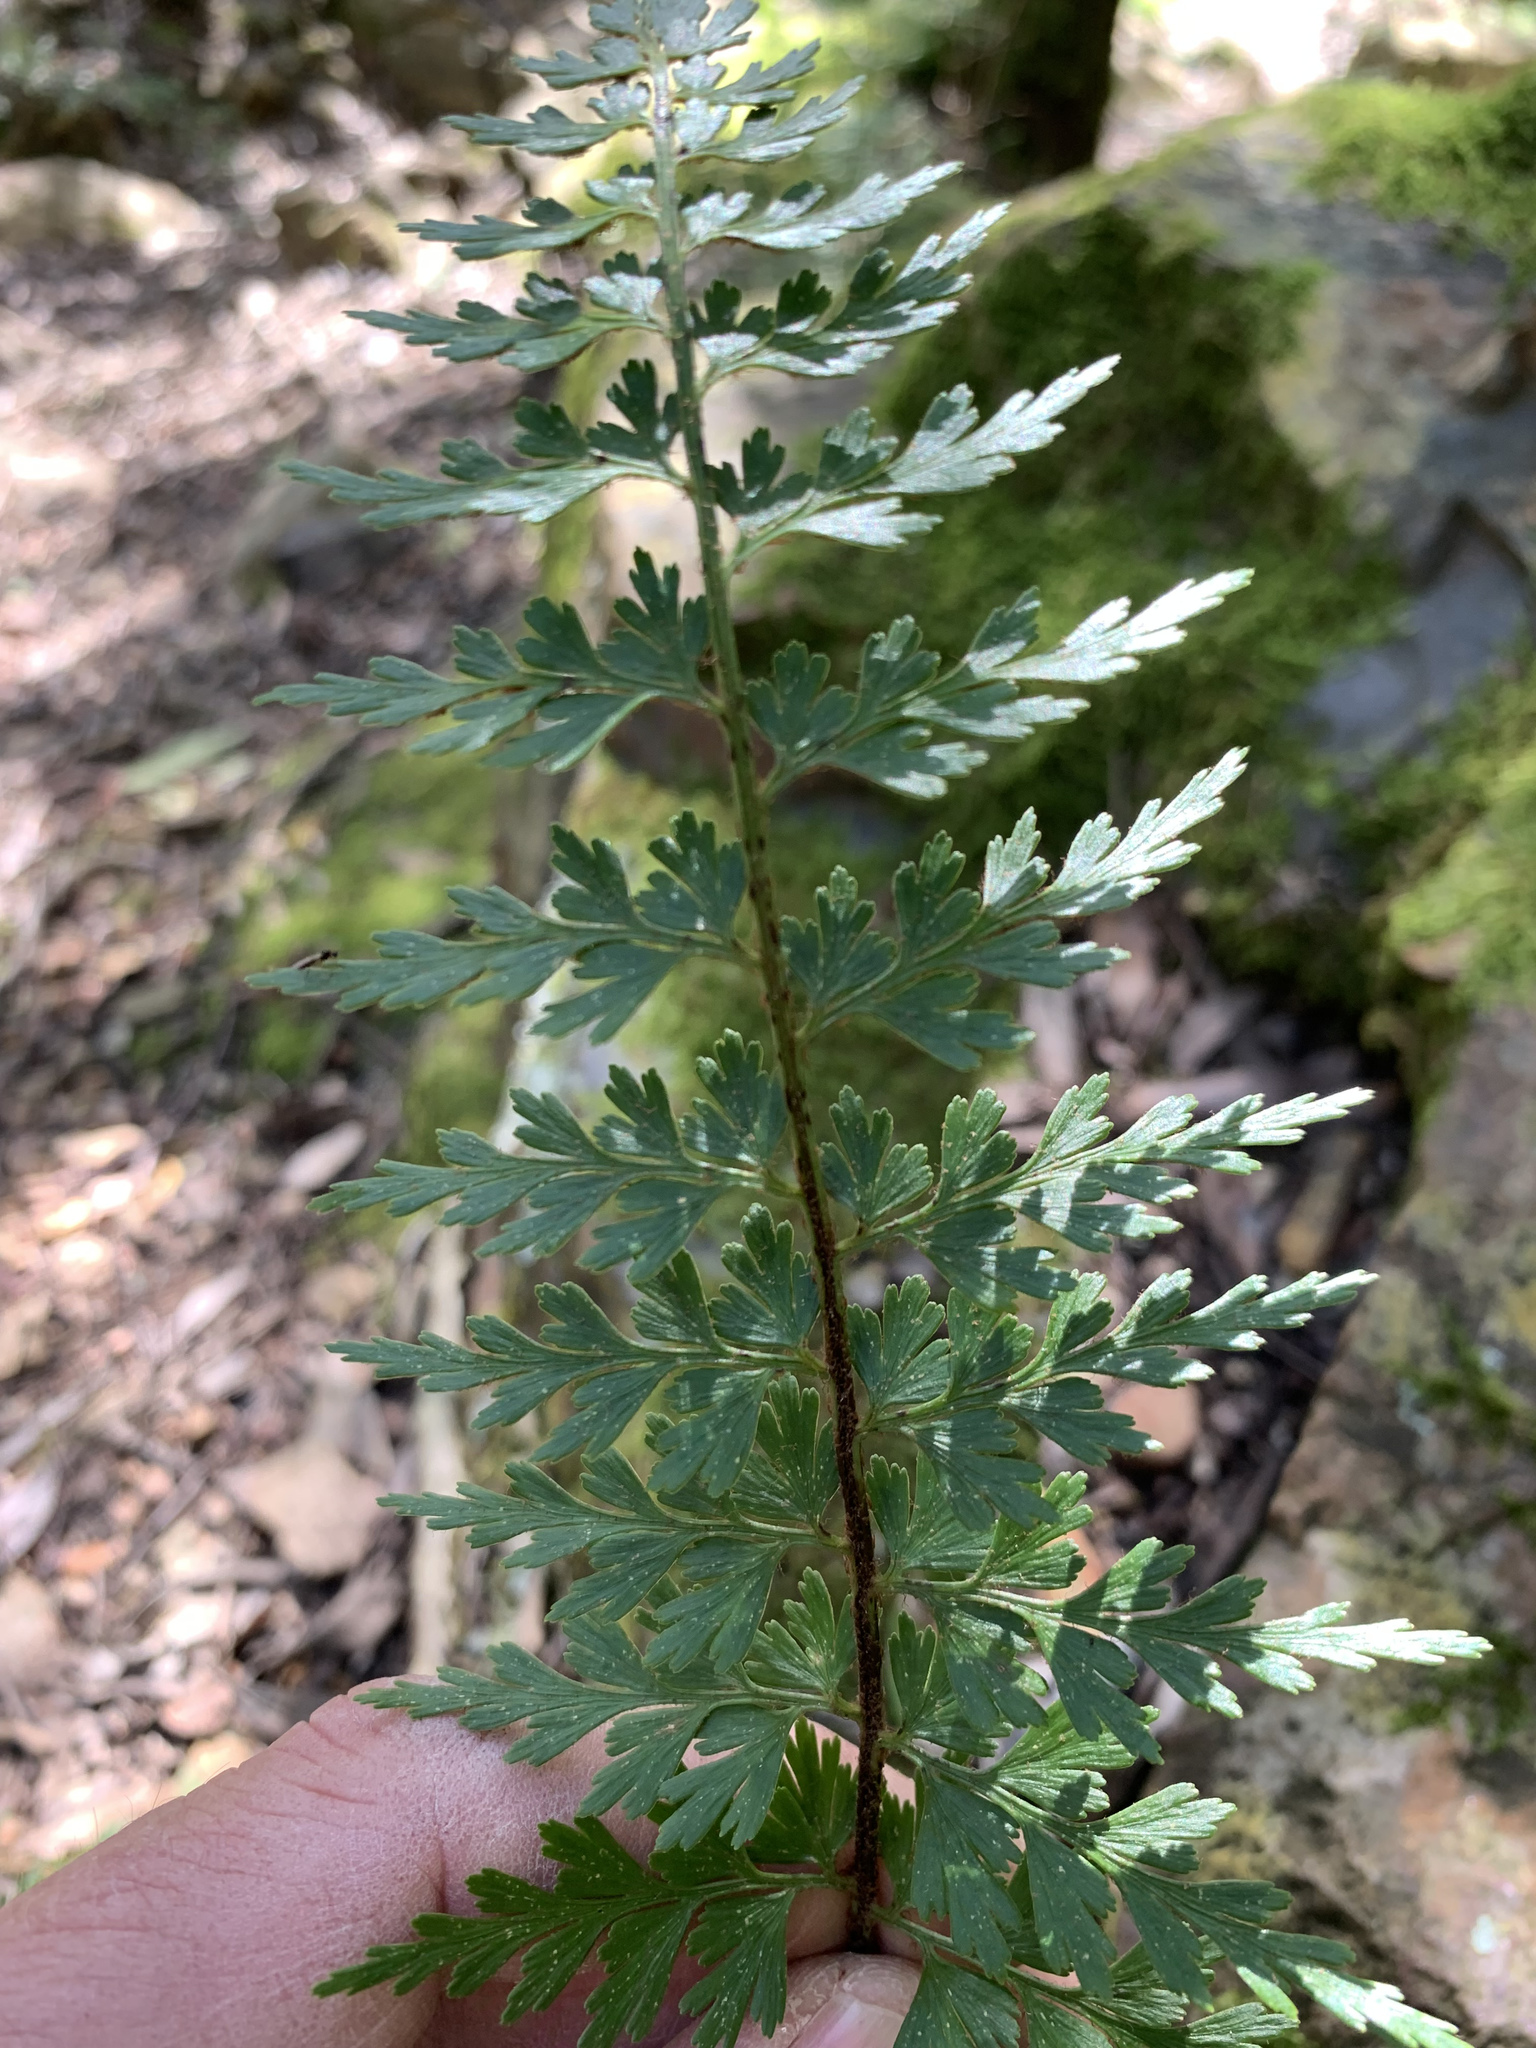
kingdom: Plantae
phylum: Tracheophyta
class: Polypodiopsida
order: Polypodiales
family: Aspleniaceae
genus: Asplenium
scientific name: Asplenium aethiopicum
